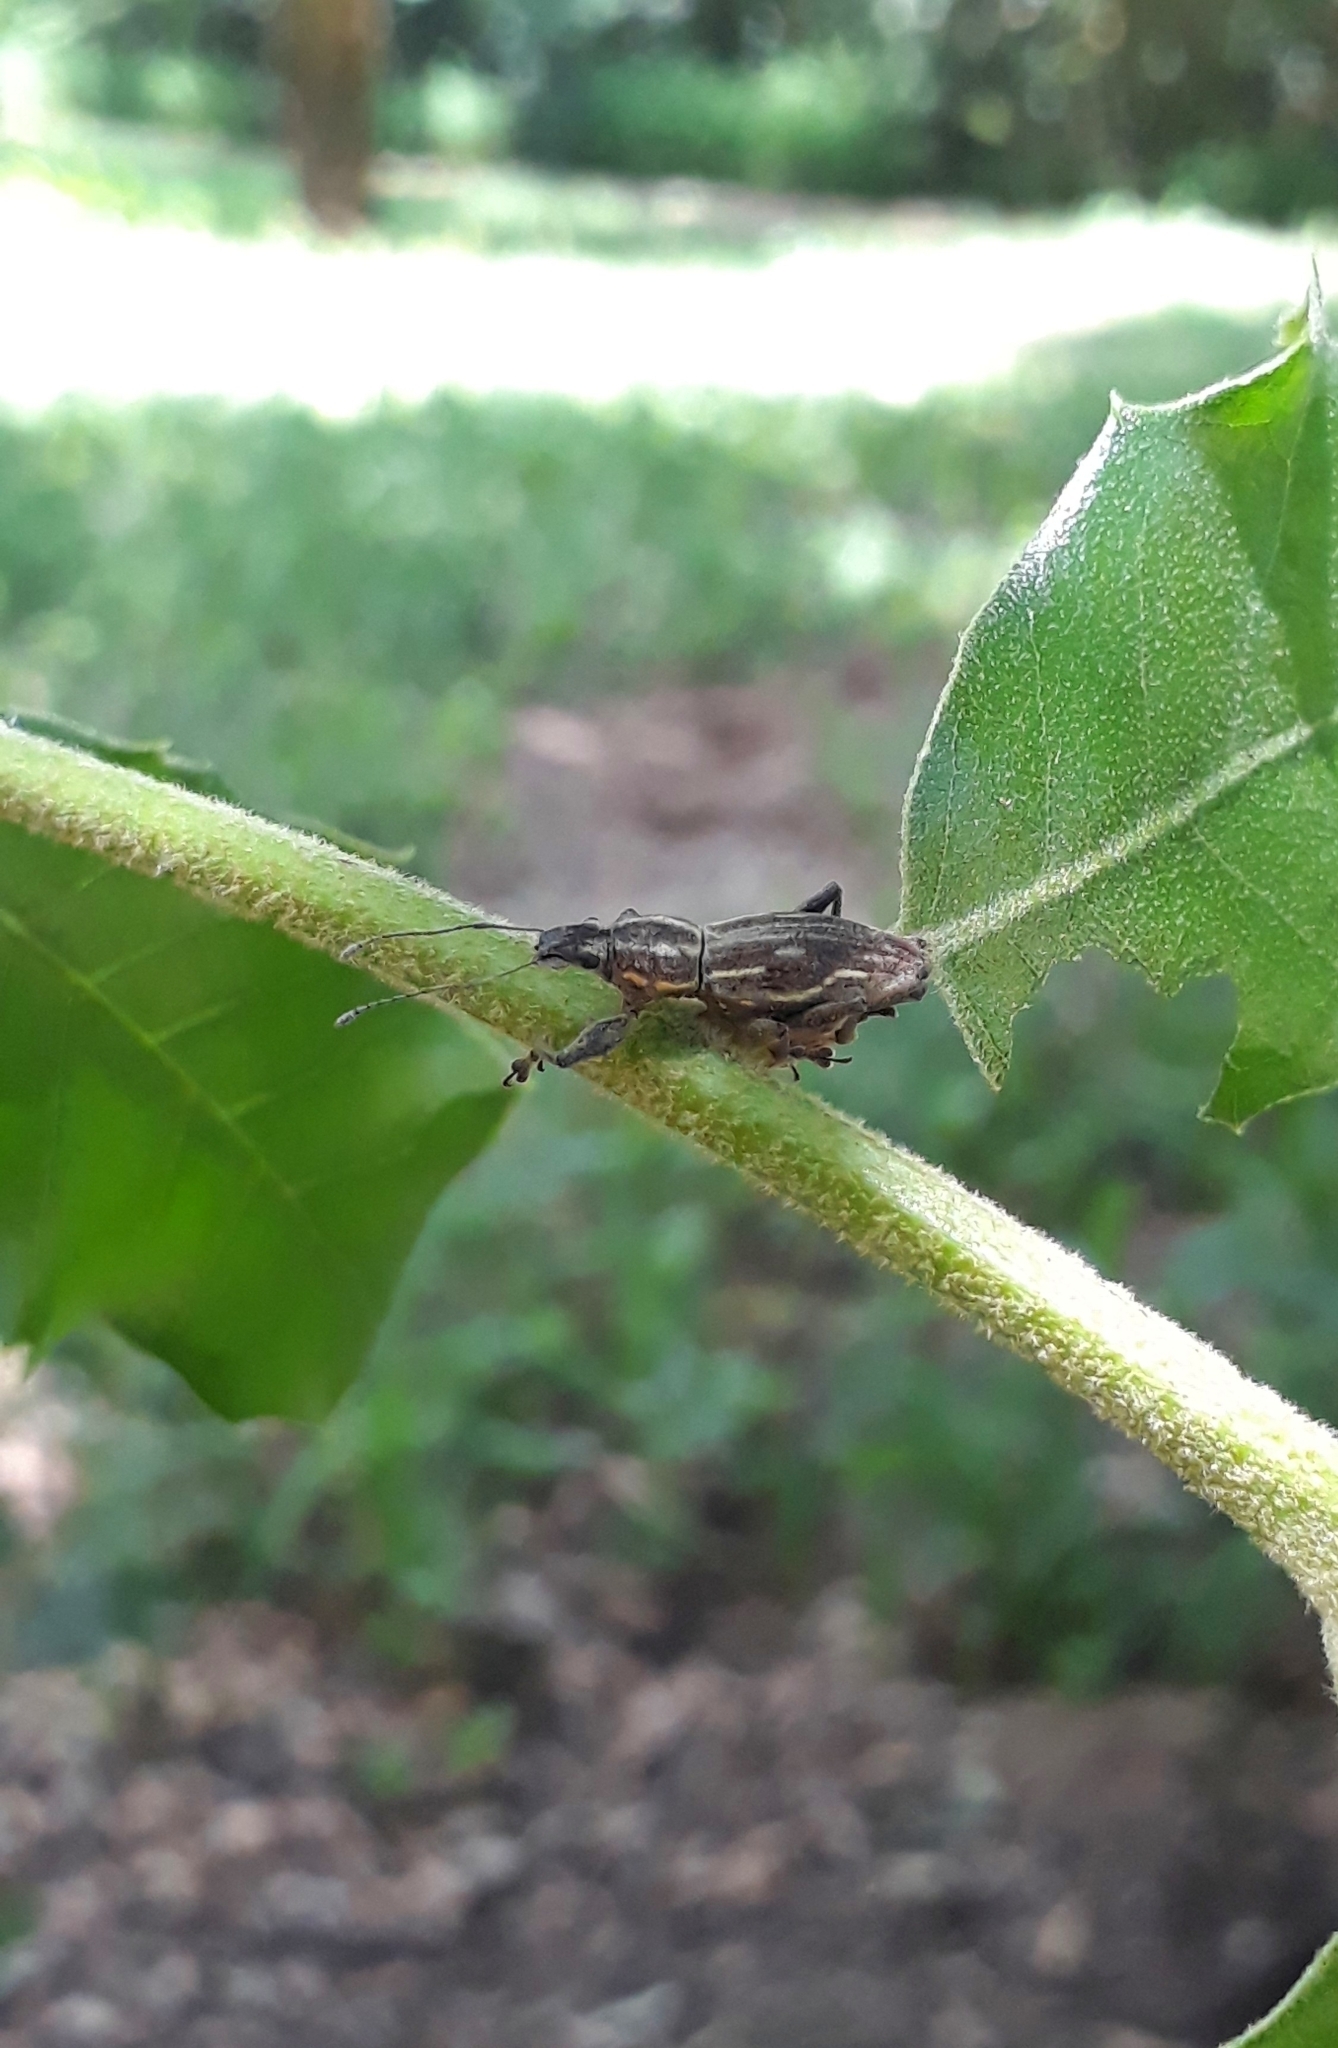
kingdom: Animalia
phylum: Arthropoda
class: Insecta
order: Coleoptera
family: Curculionidae
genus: Naupactus
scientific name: Naupactus xanthographus
